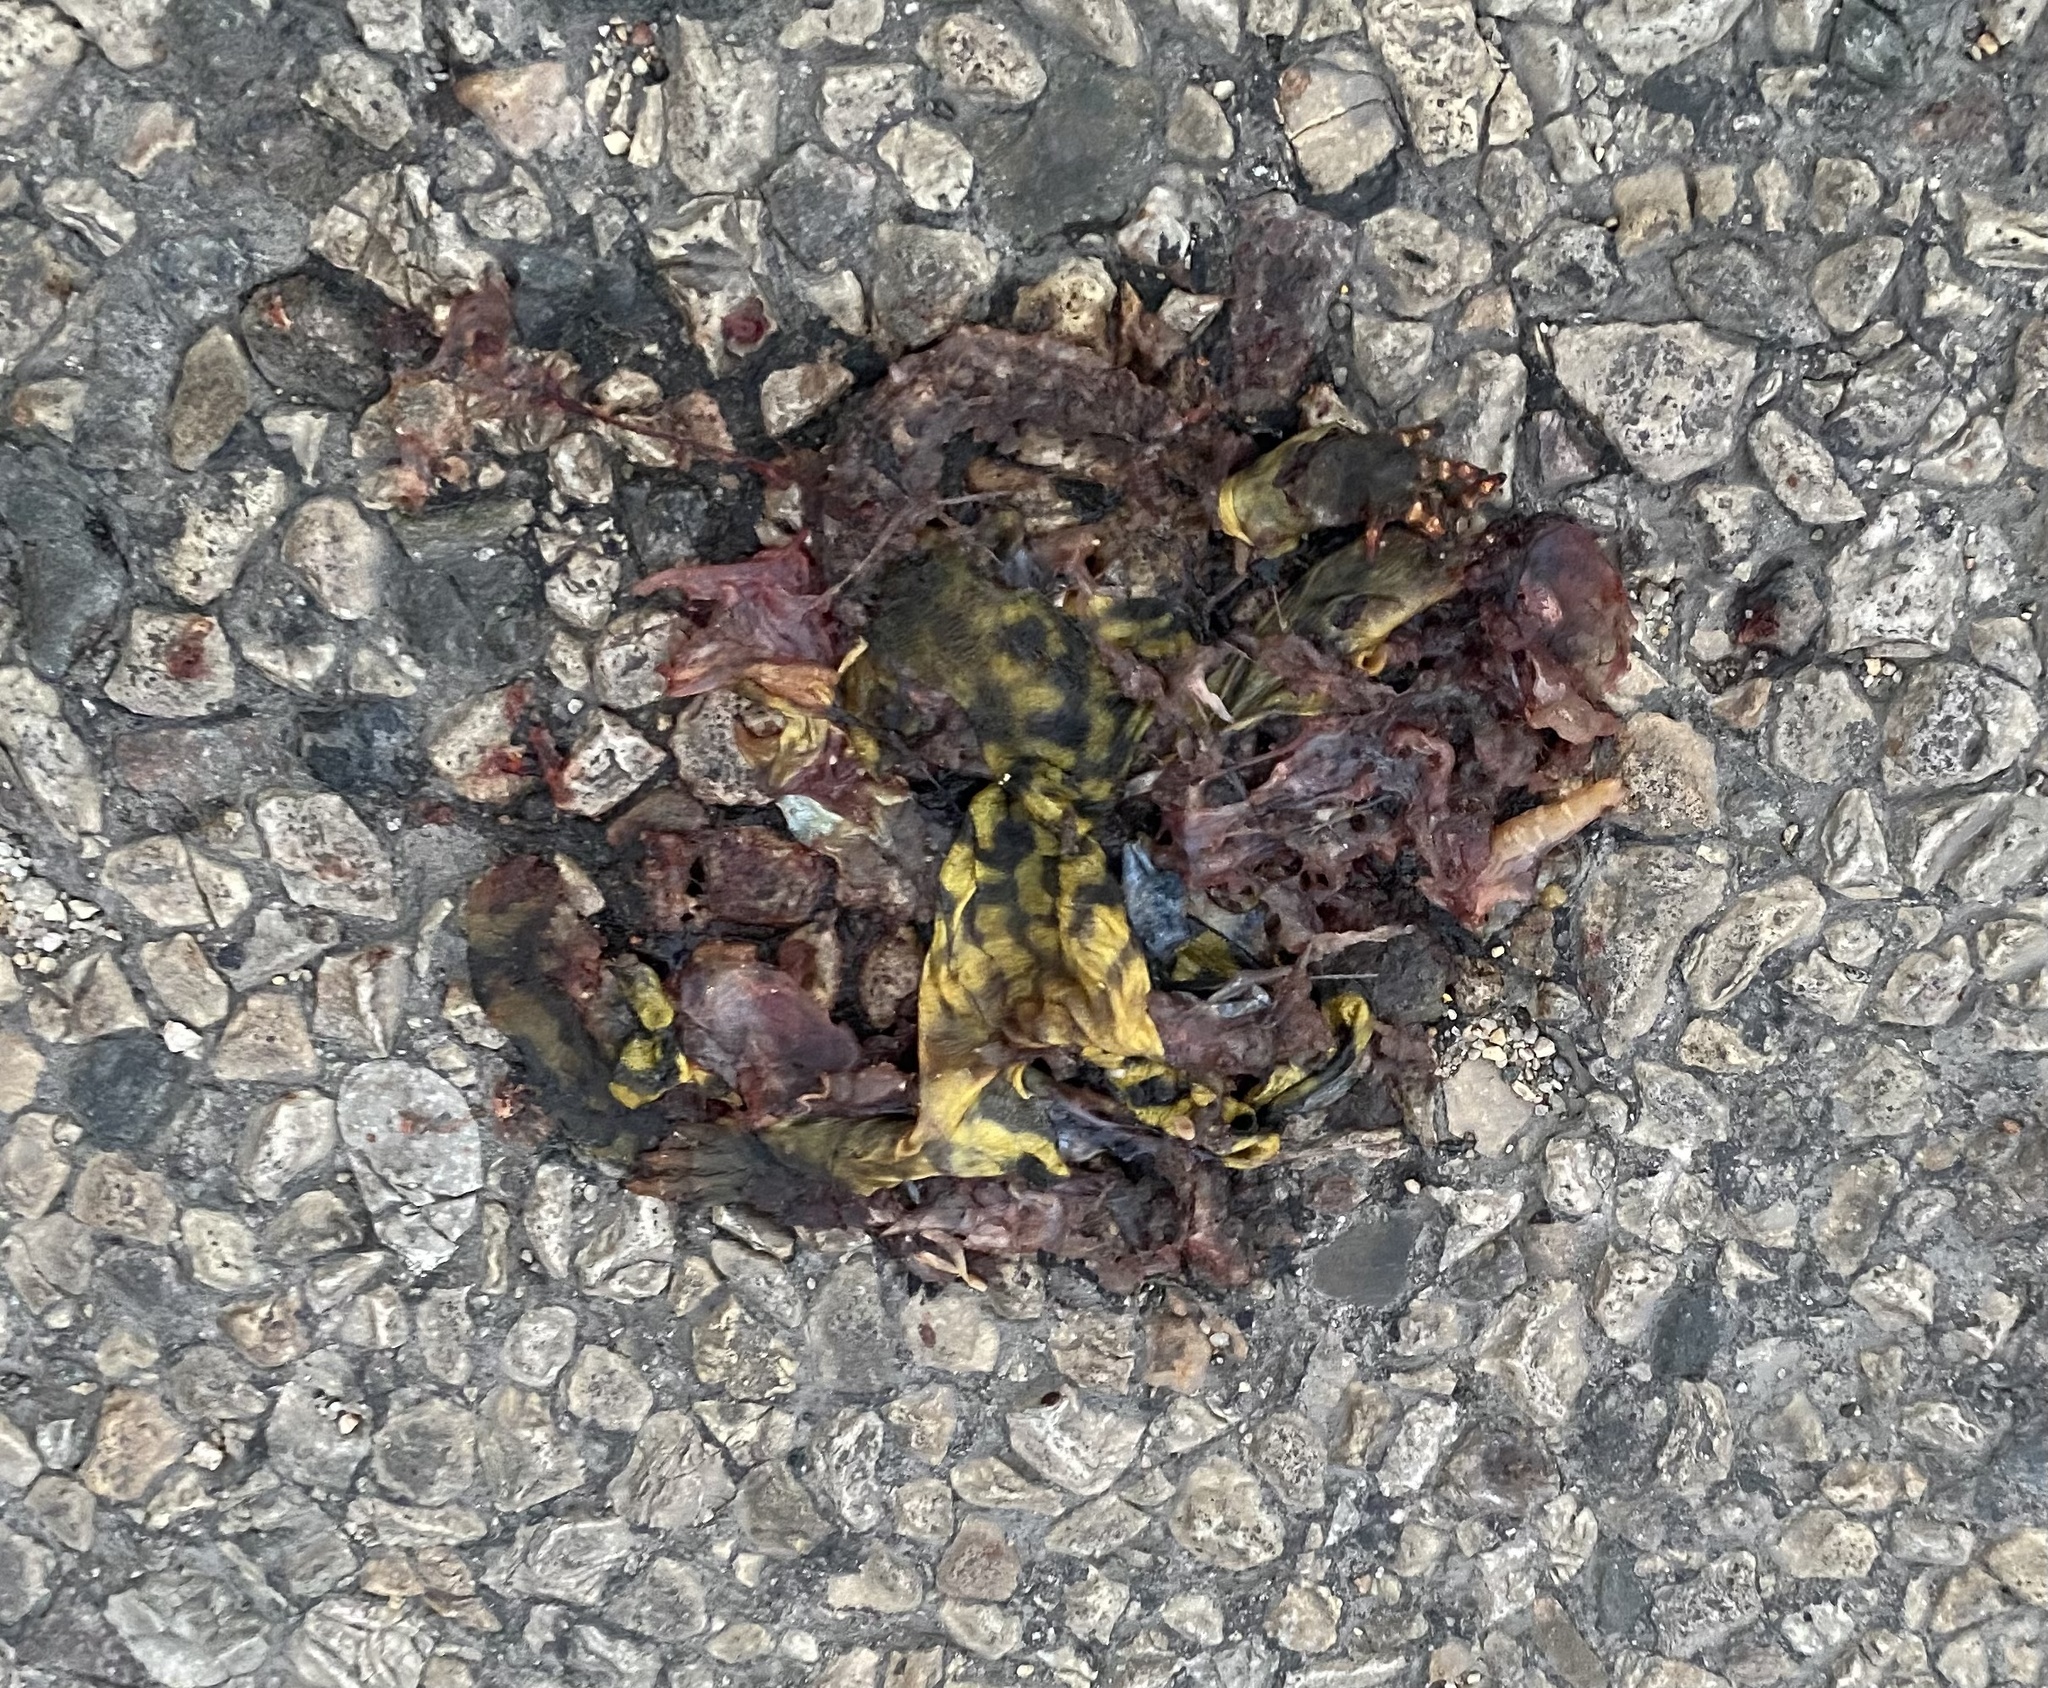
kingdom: Animalia
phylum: Chordata
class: Amphibia
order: Caudata
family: Ambystomatidae
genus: Ambystoma
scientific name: Ambystoma mavortium
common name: Western tiger salamander
